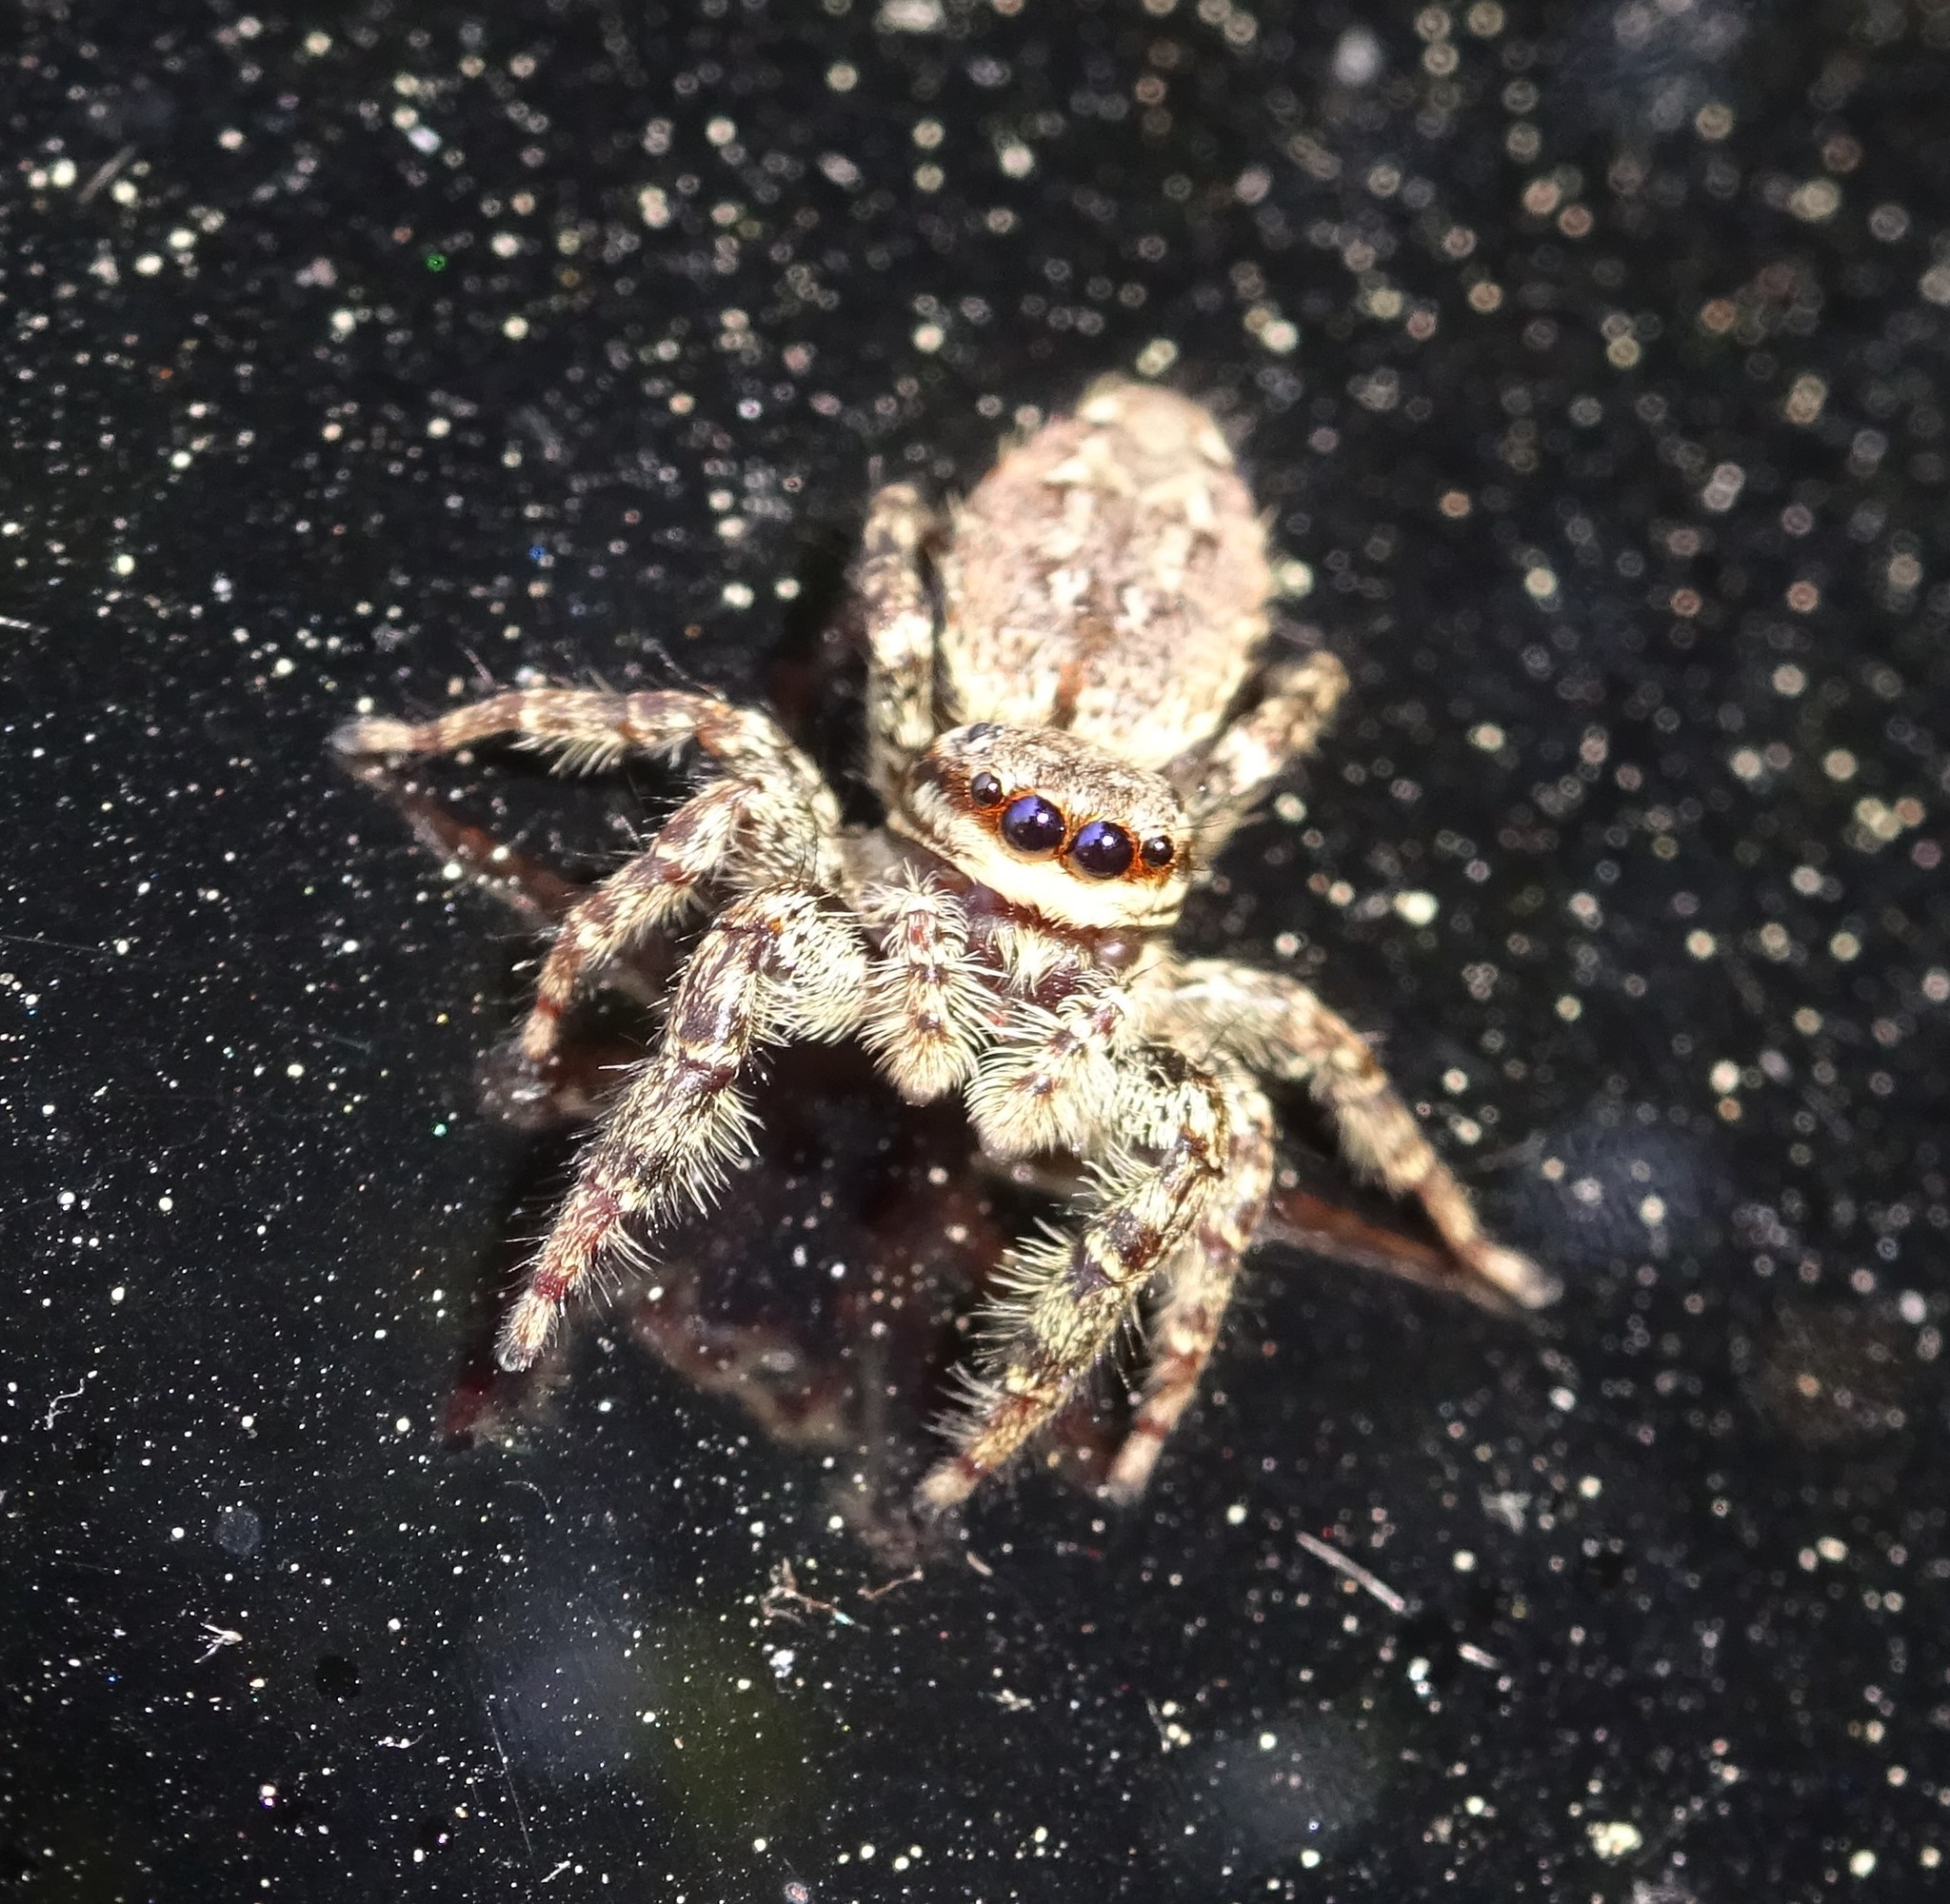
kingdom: Animalia
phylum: Arthropoda
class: Arachnida
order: Araneae
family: Salticidae
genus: Marpissa
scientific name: Marpissa muscosa
